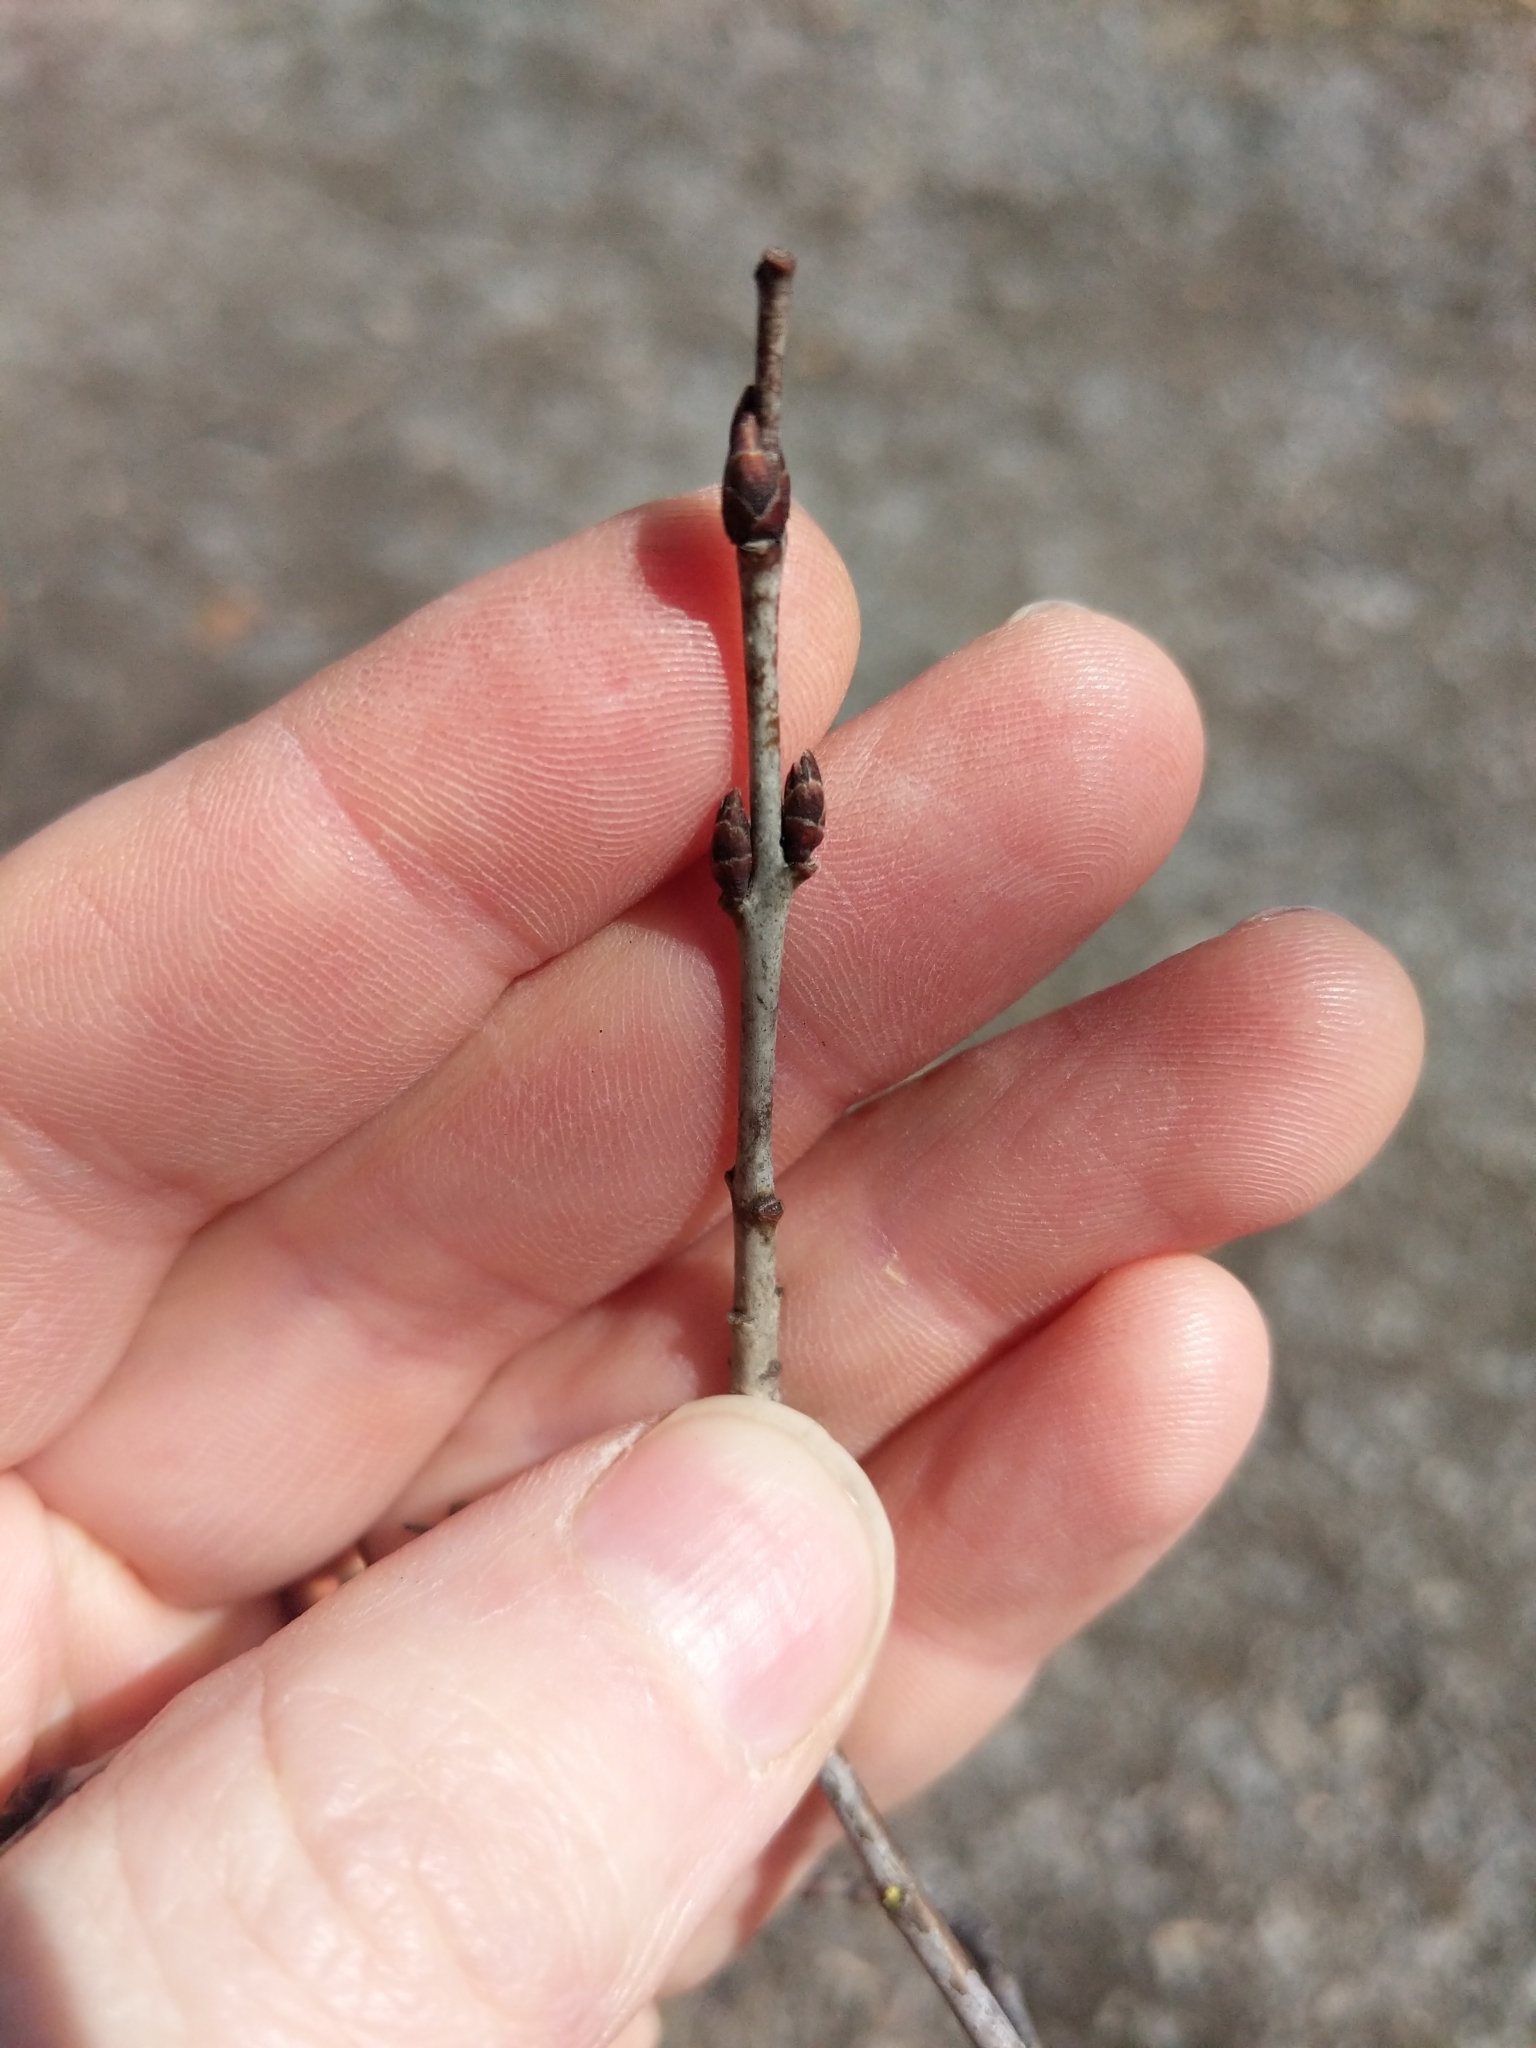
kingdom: Plantae
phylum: Tracheophyta
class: Magnoliopsida
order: Rosales
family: Rhamnaceae
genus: Rhamnus
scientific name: Rhamnus cathartica
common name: Common buckthorn
